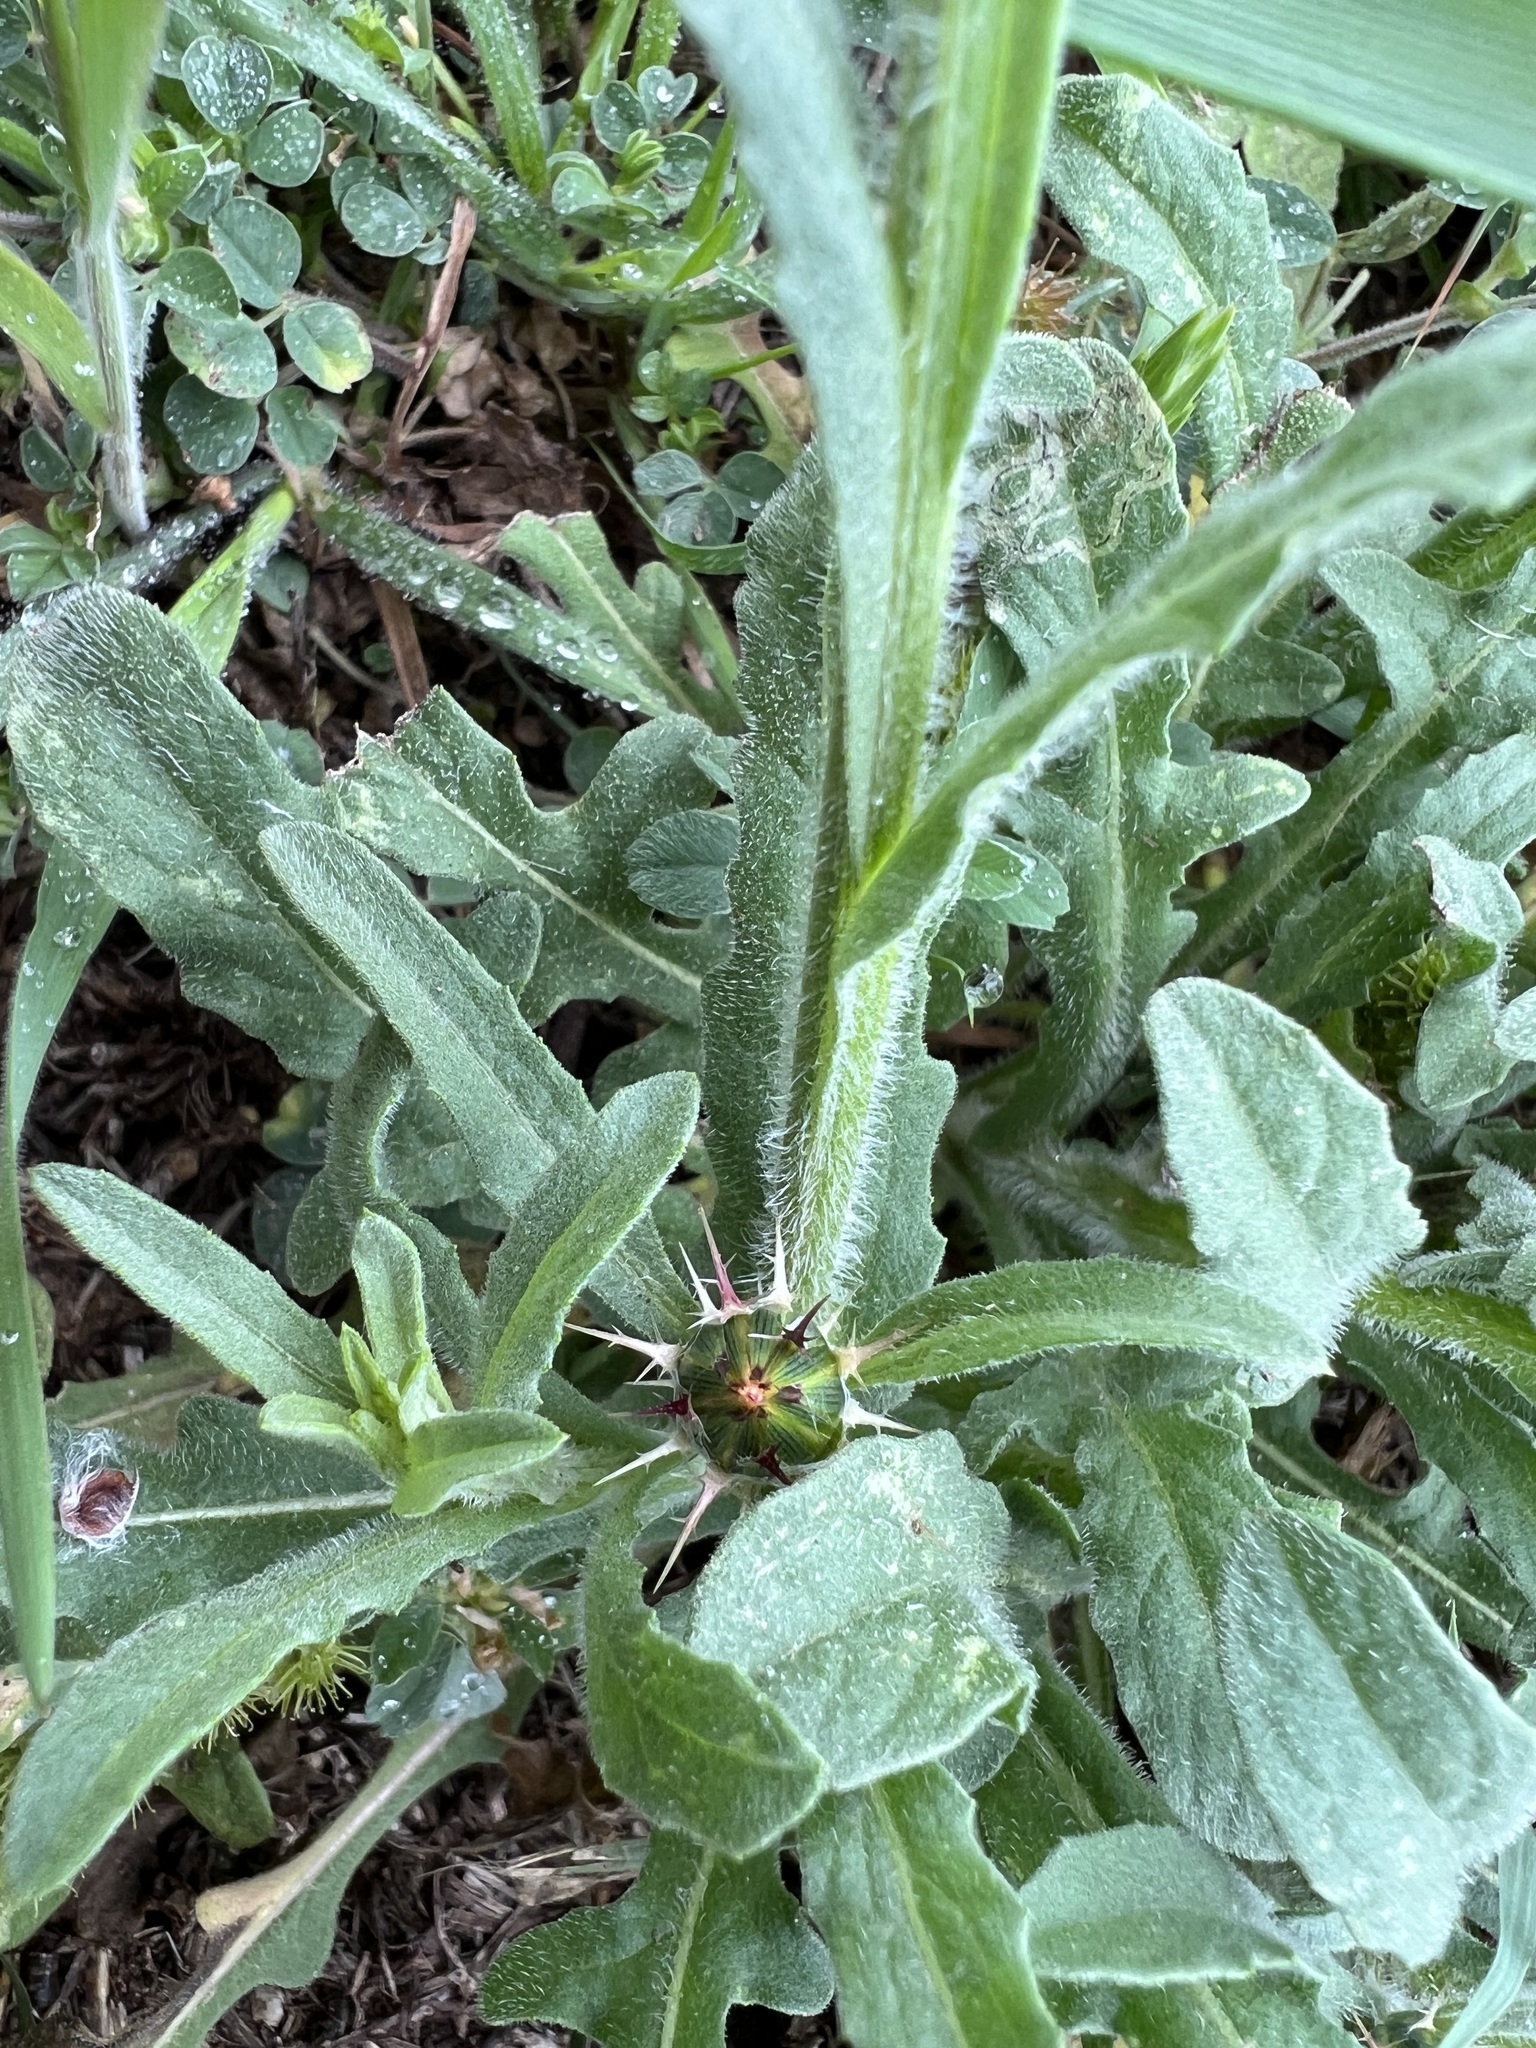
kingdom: Plantae
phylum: Tracheophyta
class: Magnoliopsida
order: Asterales
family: Asteraceae
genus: Centaurea
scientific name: Centaurea melitensis
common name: Maltese star-thistle
